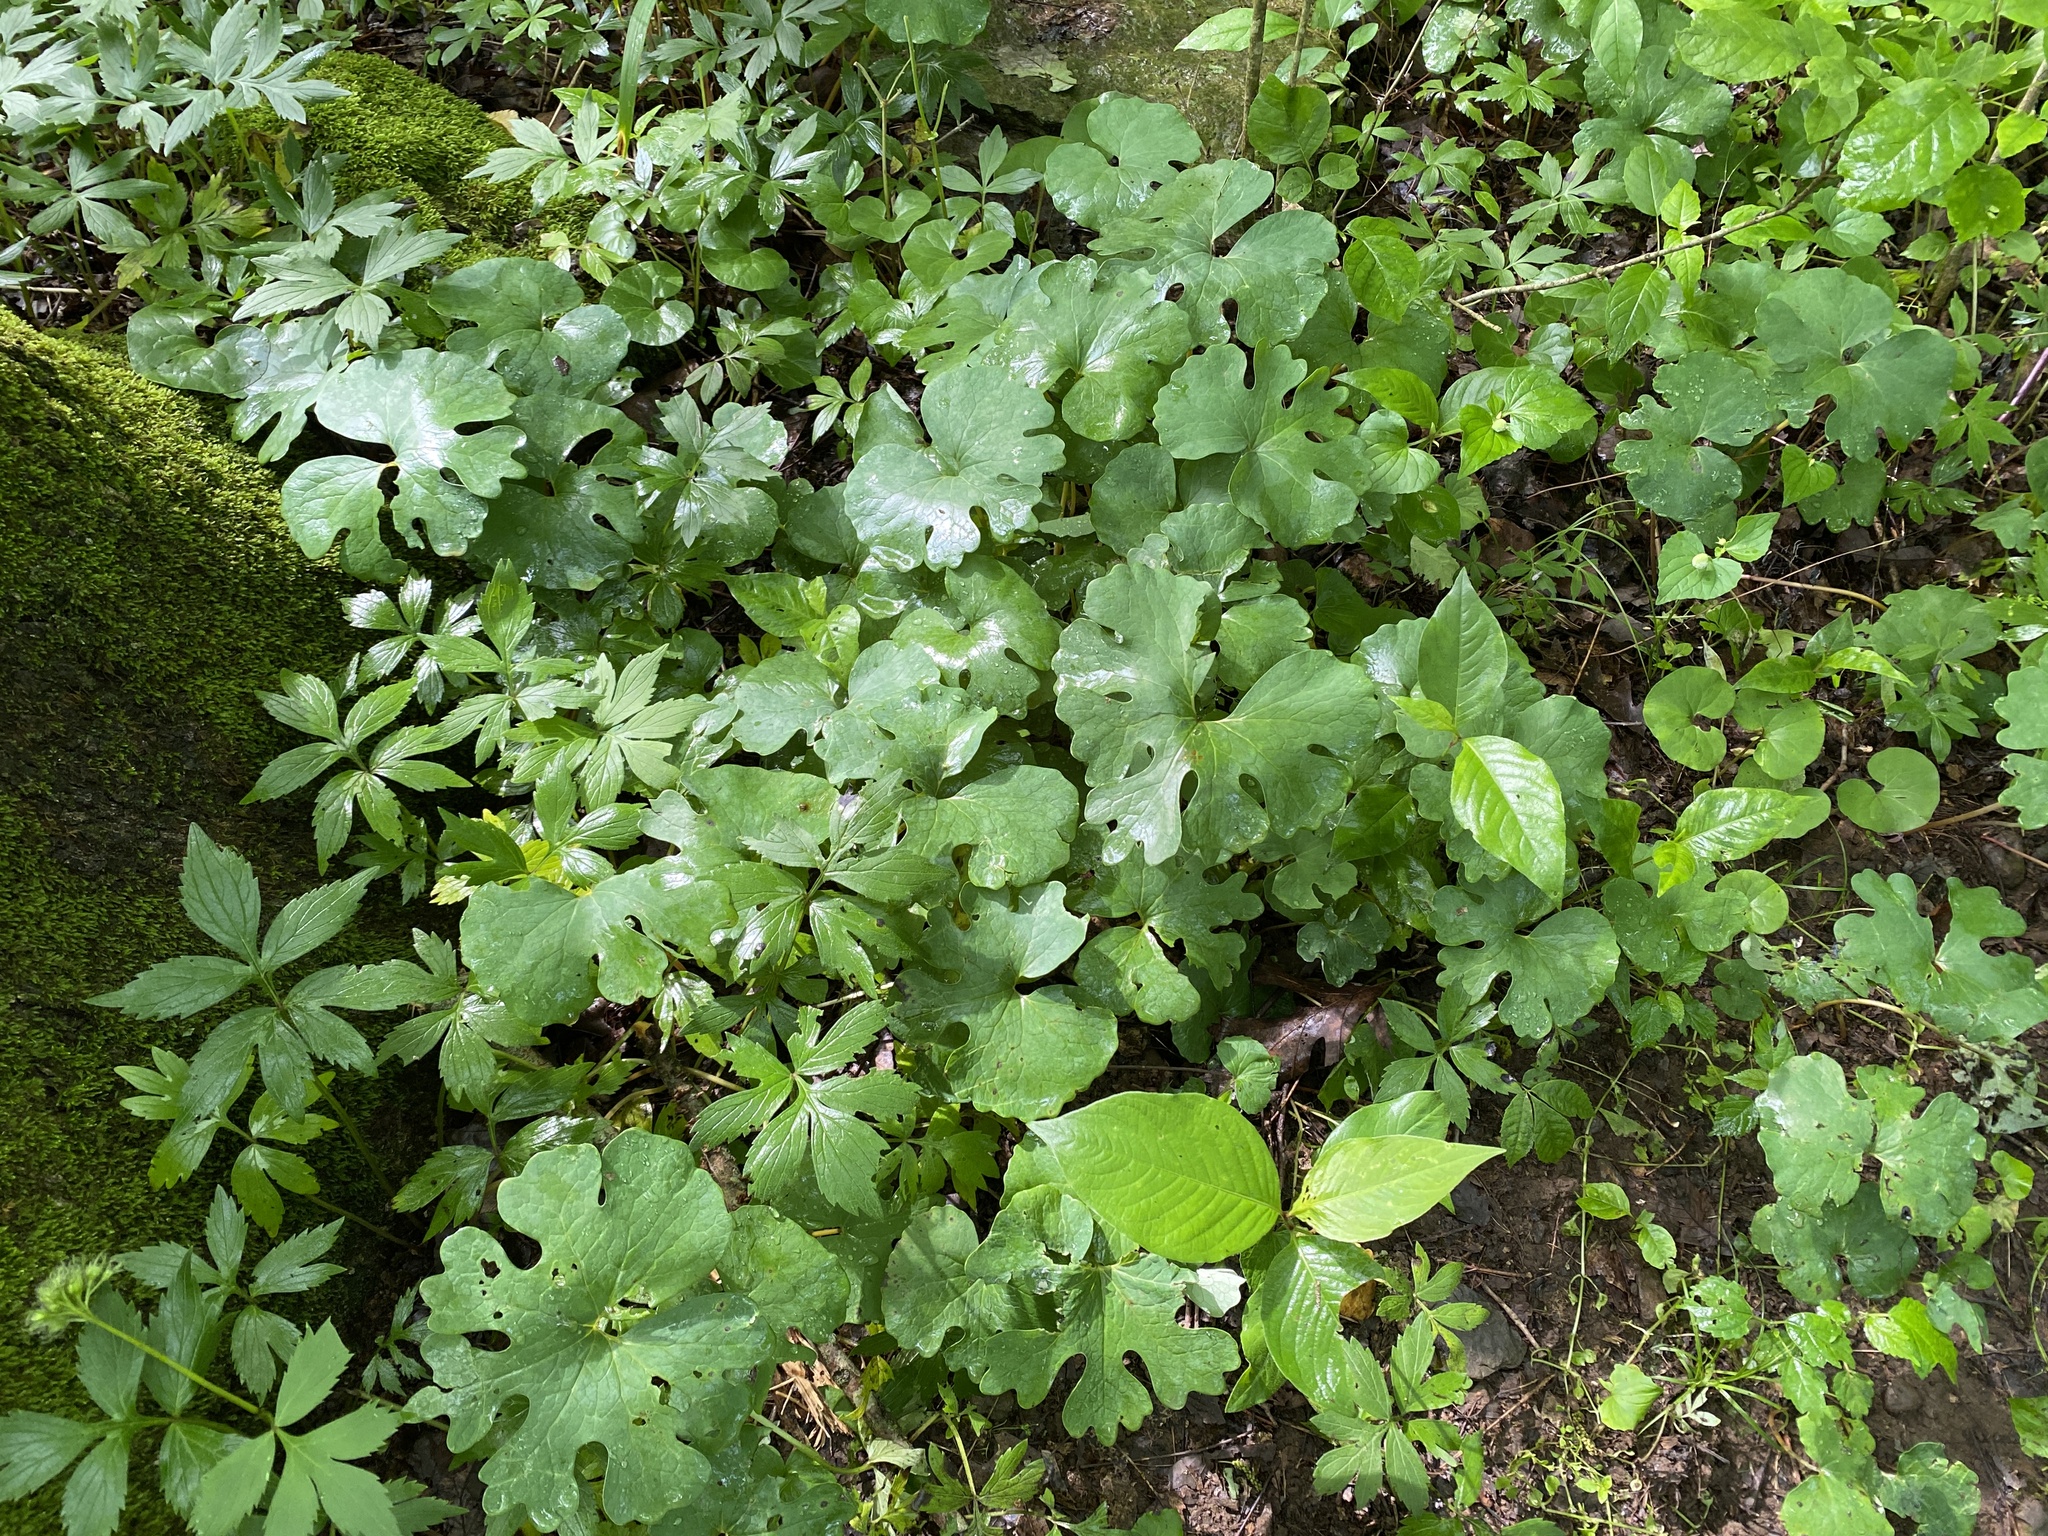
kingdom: Plantae
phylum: Tracheophyta
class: Magnoliopsida
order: Ranunculales
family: Papaveraceae
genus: Sanguinaria
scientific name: Sanguinaria canadensis
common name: Bloodroot
